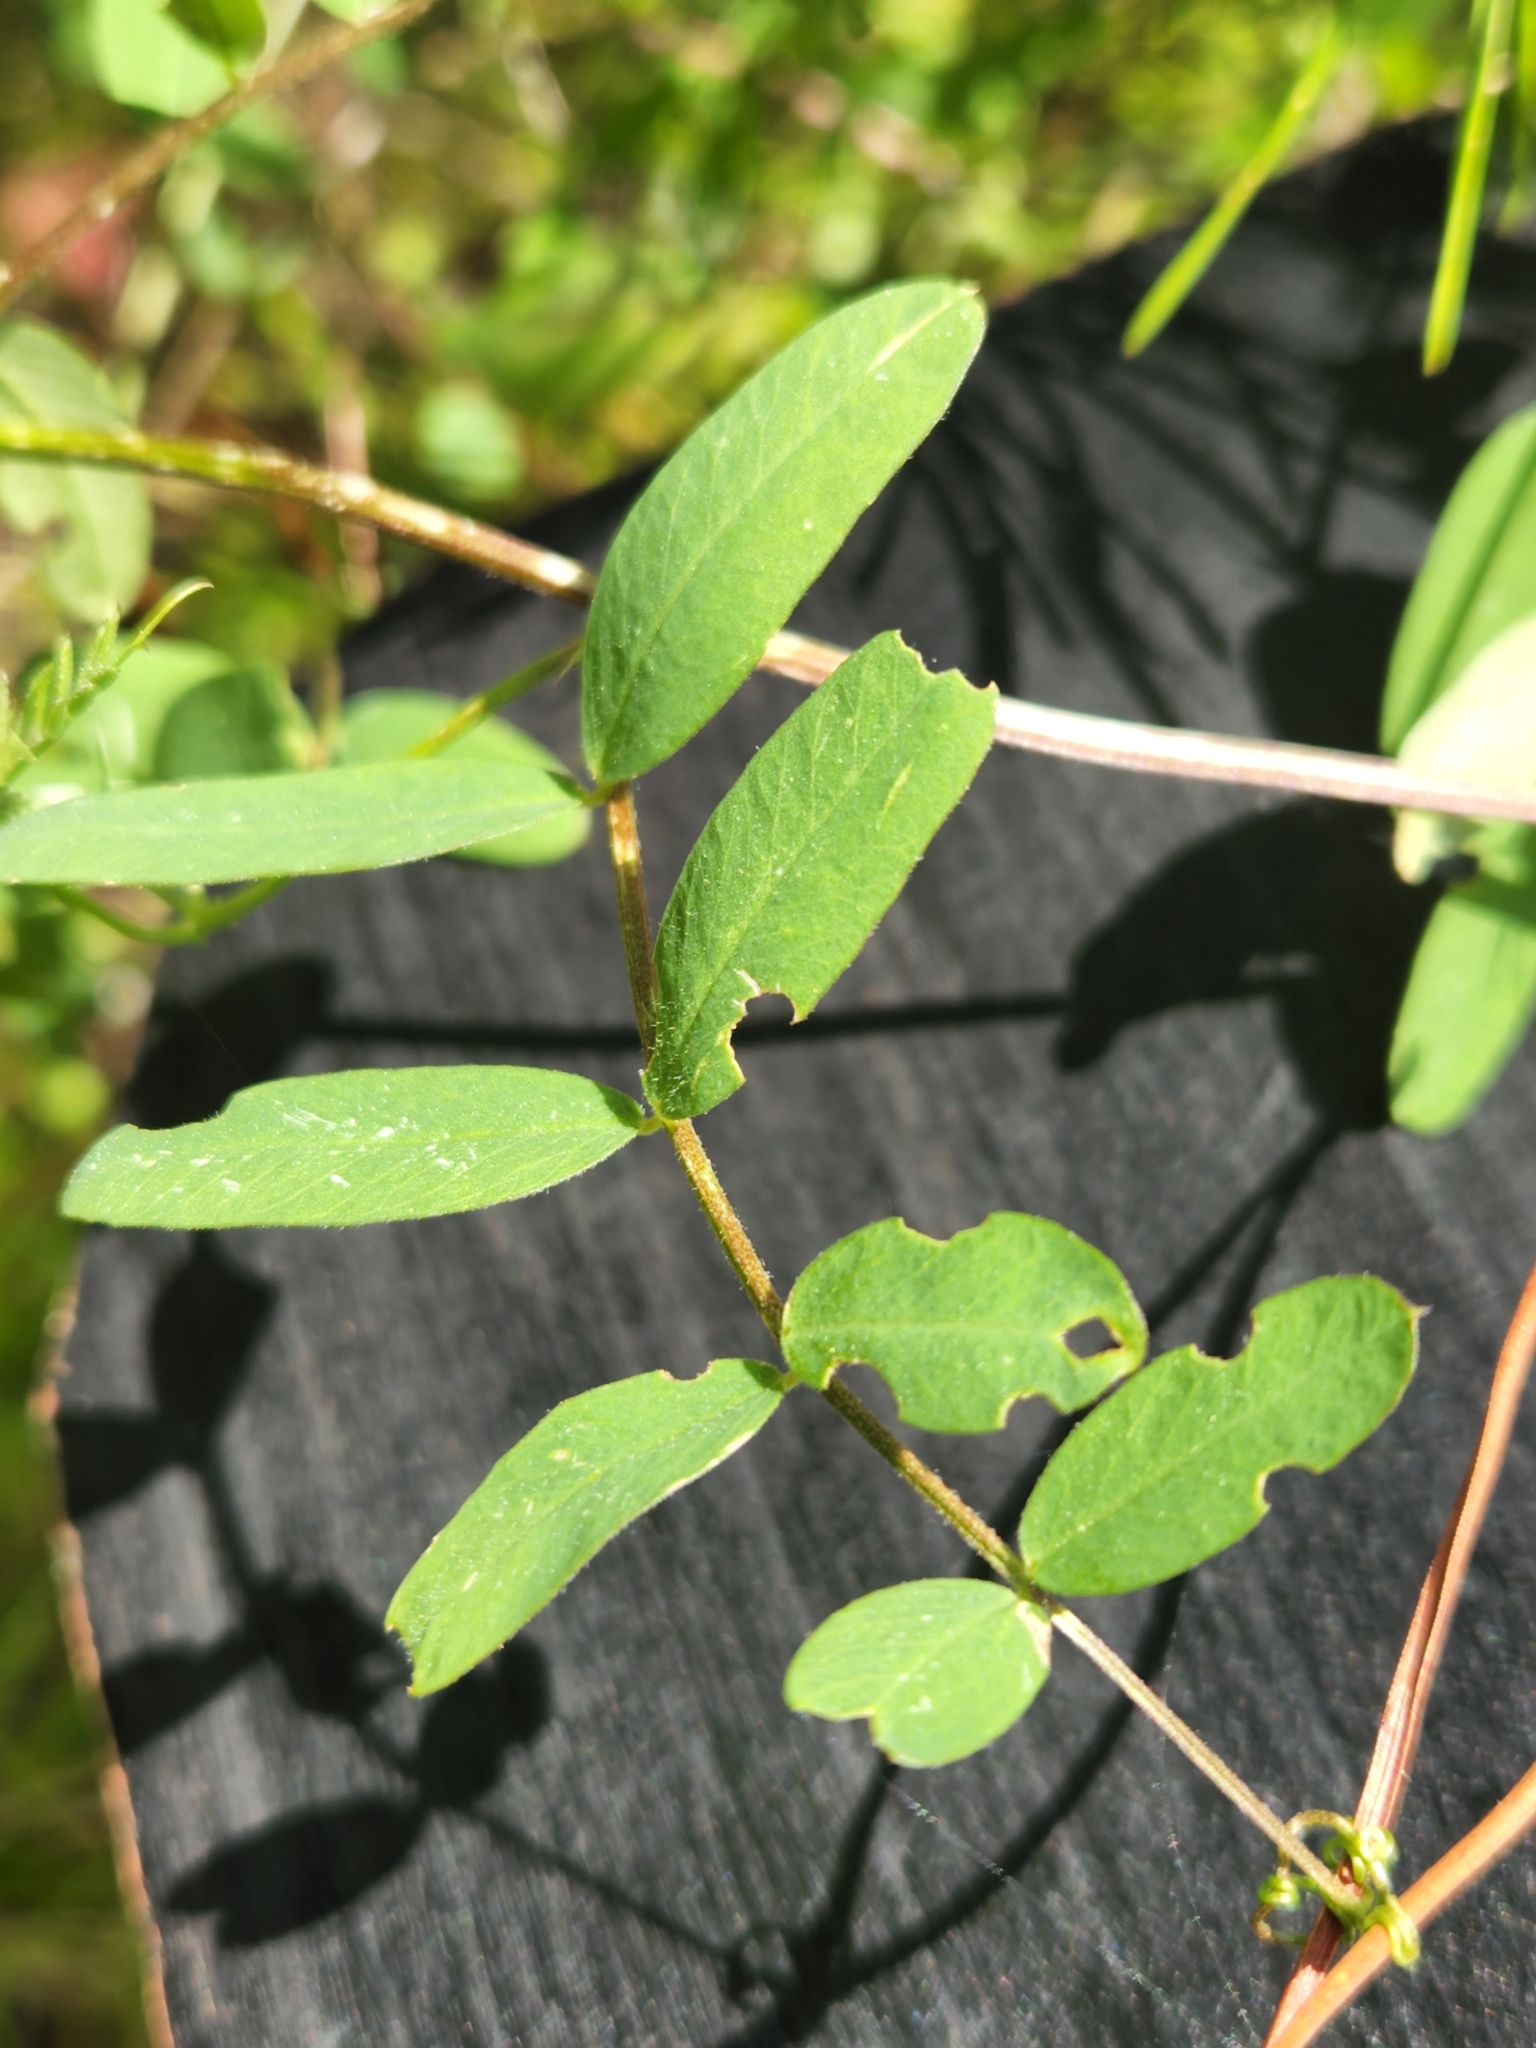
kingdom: Plantae
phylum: Tracheophyta
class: Magnoliopsida
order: Fabales
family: Fabaceae
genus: Vicia
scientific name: Vicia americana
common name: American vetch
